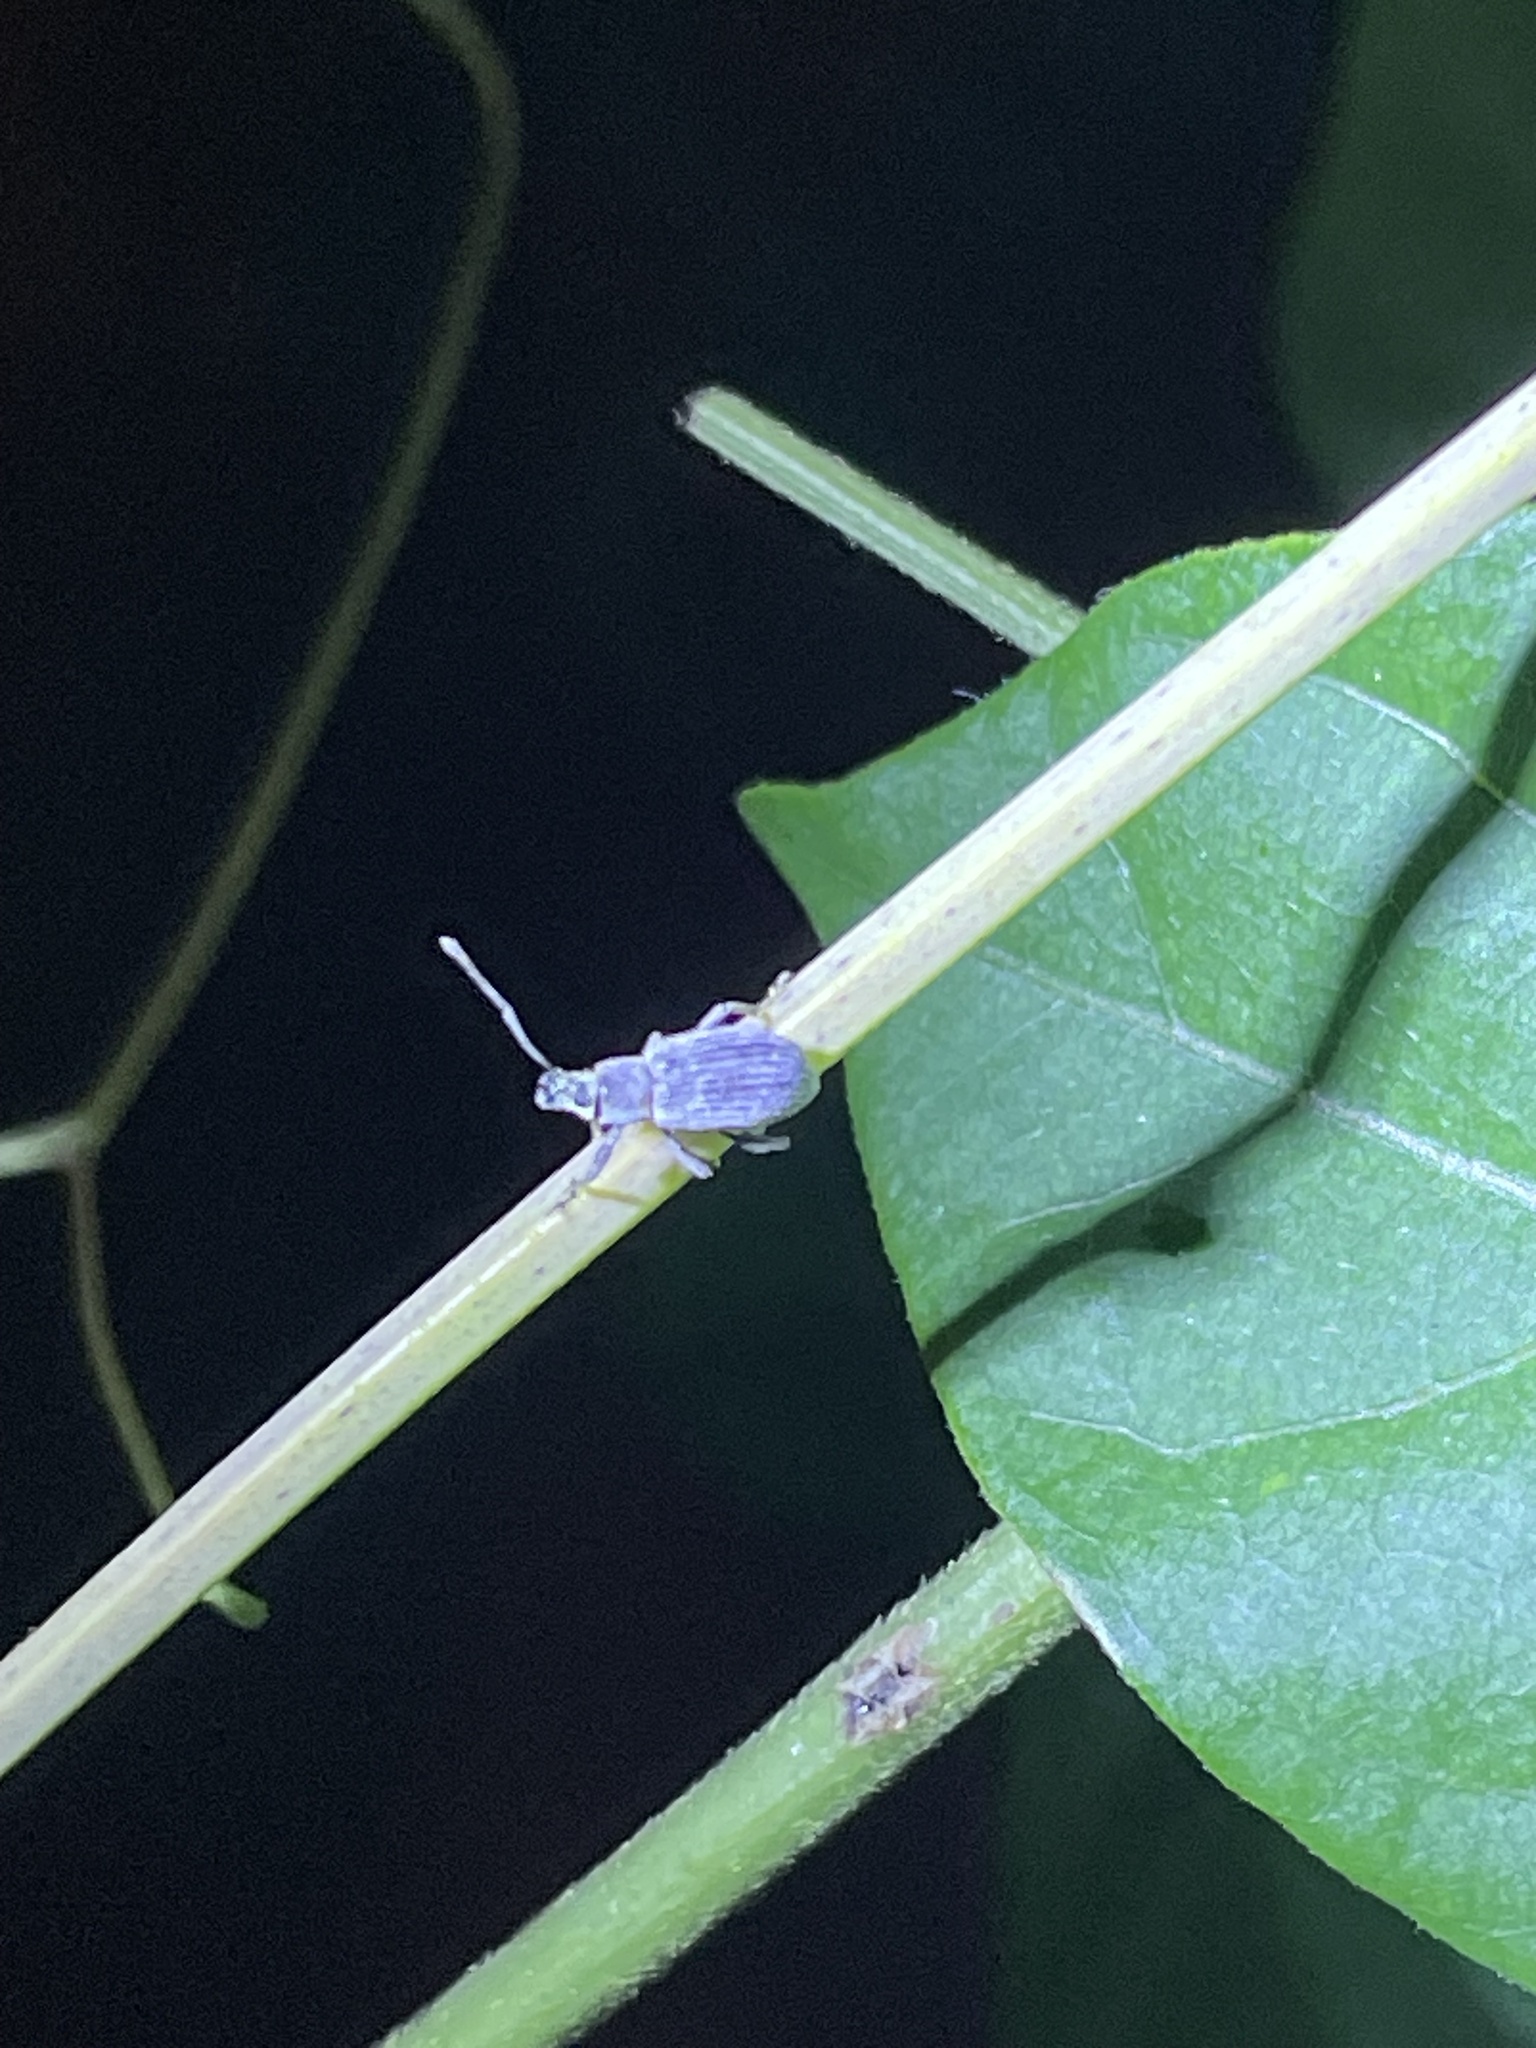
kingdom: Animalia
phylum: Arthropoda
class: Insecta
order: Coleoptera
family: Curculionidae
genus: Cyrtepistomus
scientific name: Cyrtepistomus castaneus
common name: Weevil
